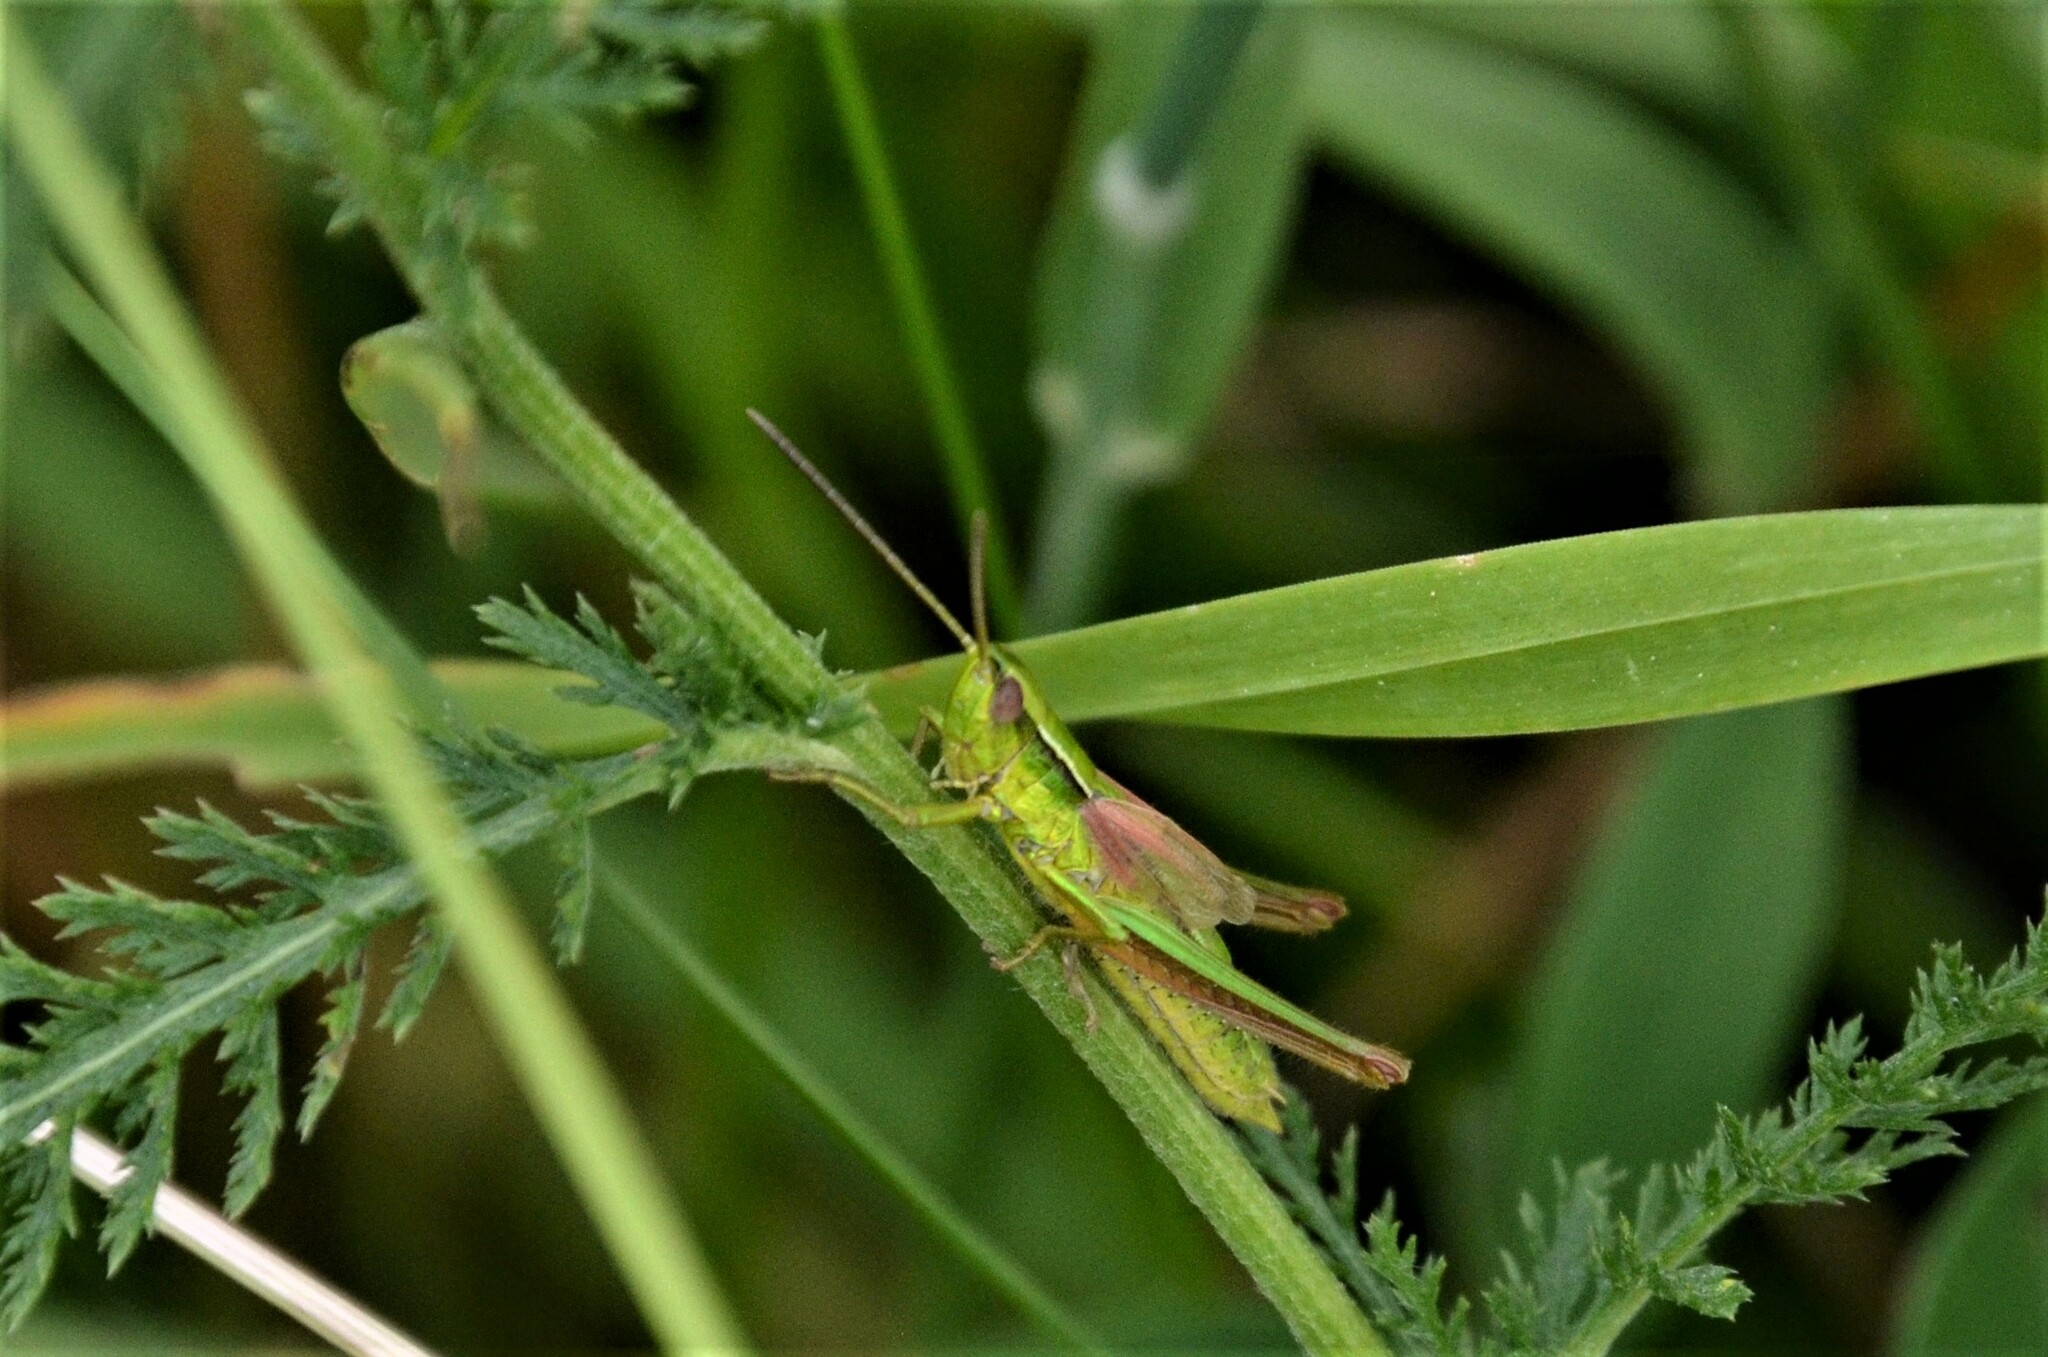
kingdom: Animalia
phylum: Arthropoda
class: Insecta
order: Orthoptera
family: Acrididae
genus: Euthystira
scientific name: Euthystira brachyptera
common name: Small gold grasshopper
